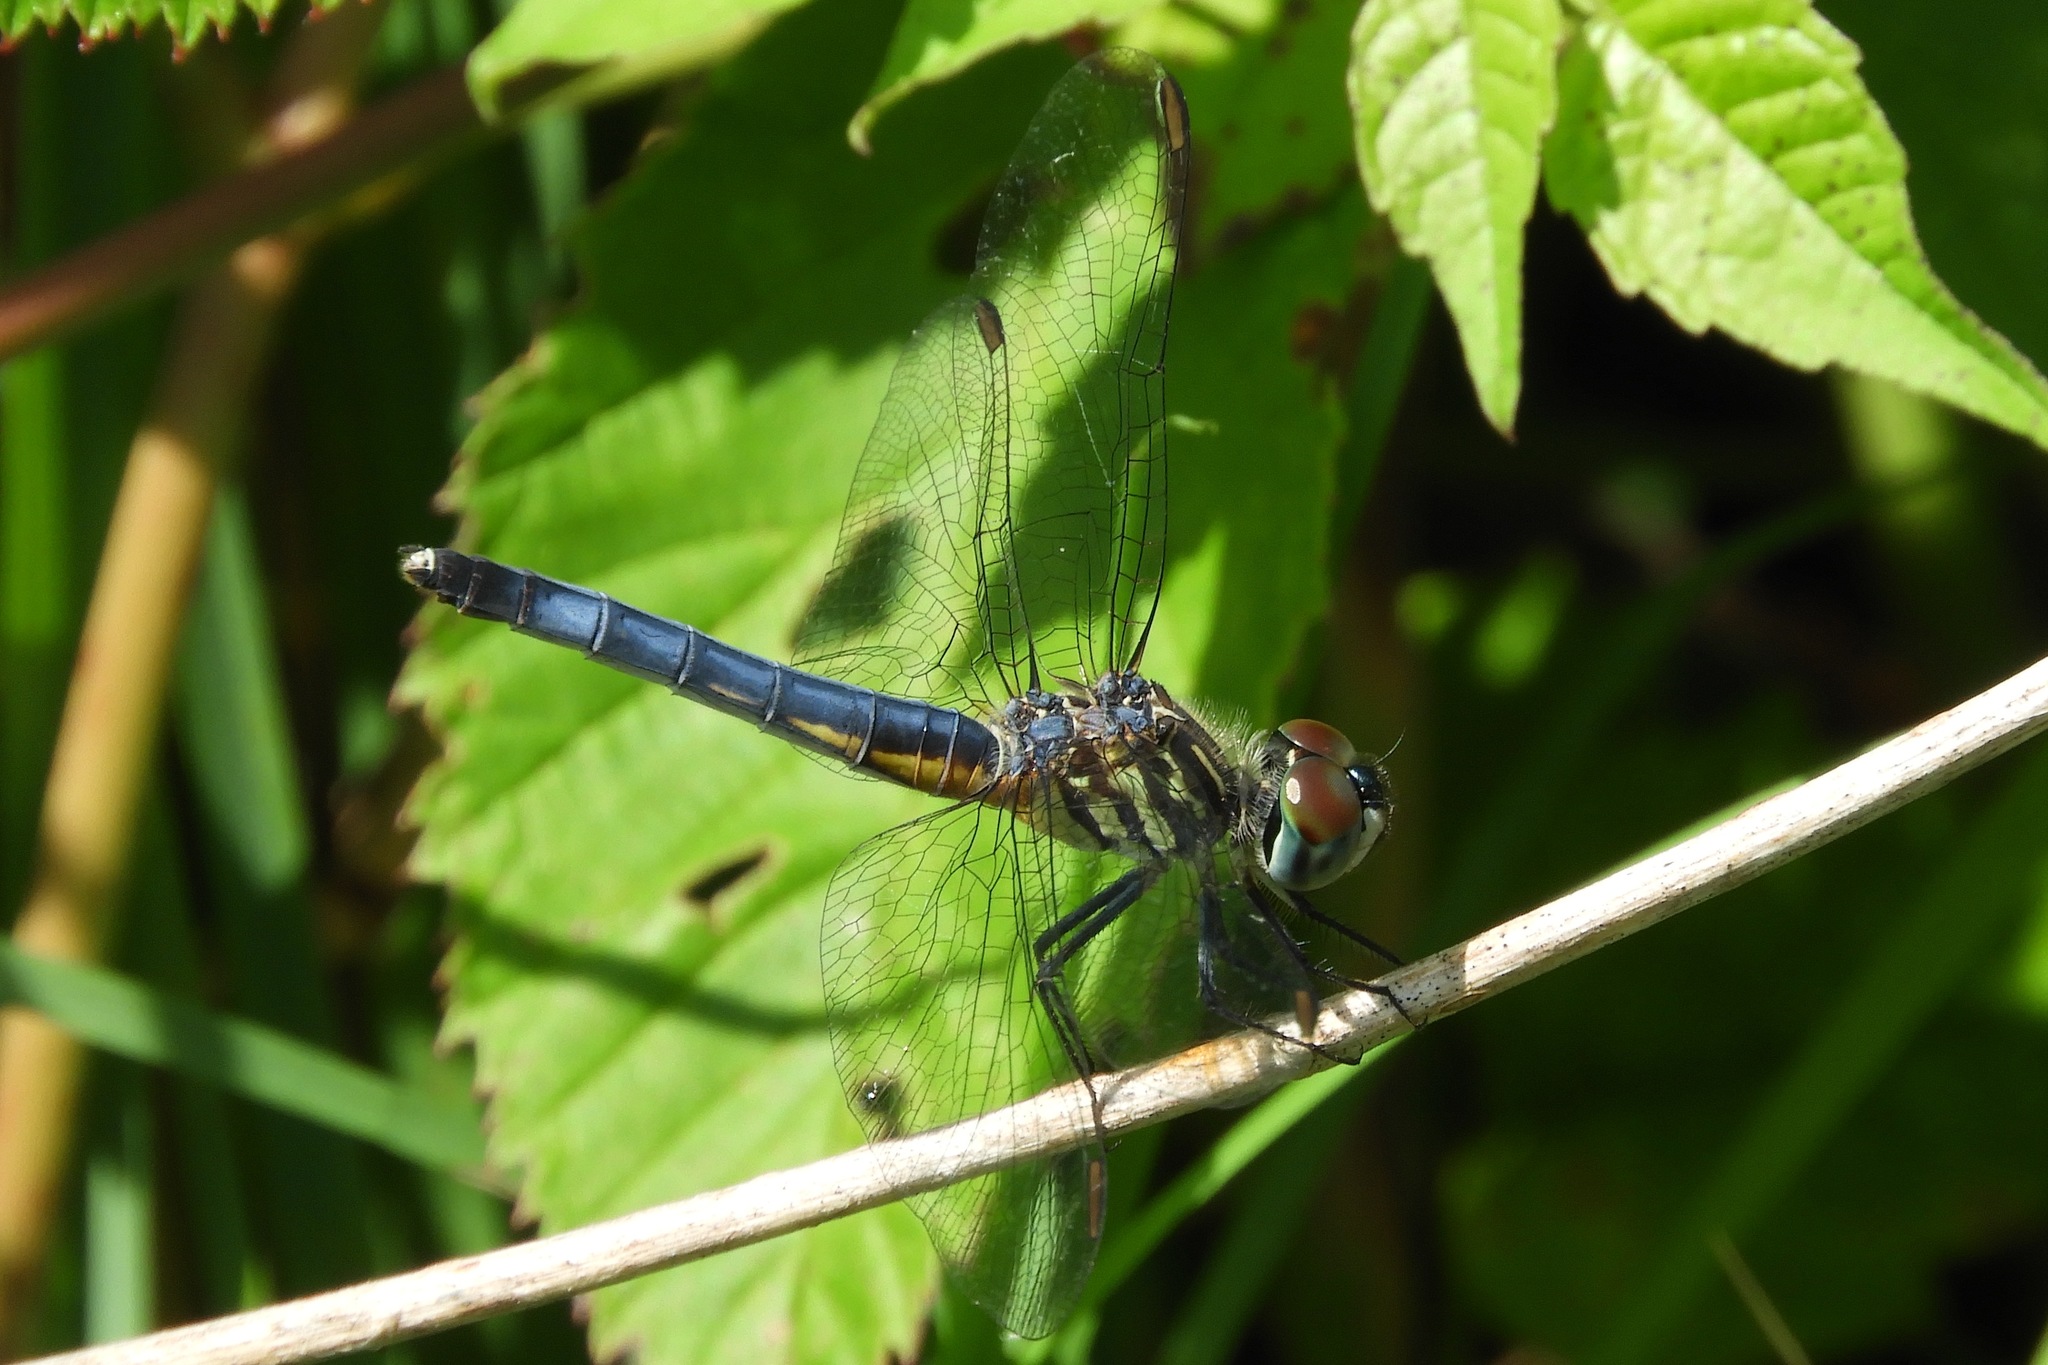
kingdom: Animalia
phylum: Arthropoda
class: Insecta
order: Odonata
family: Libellulidae
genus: Pachydiplax
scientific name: Pachydiplax longipennis
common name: Blue dasher
